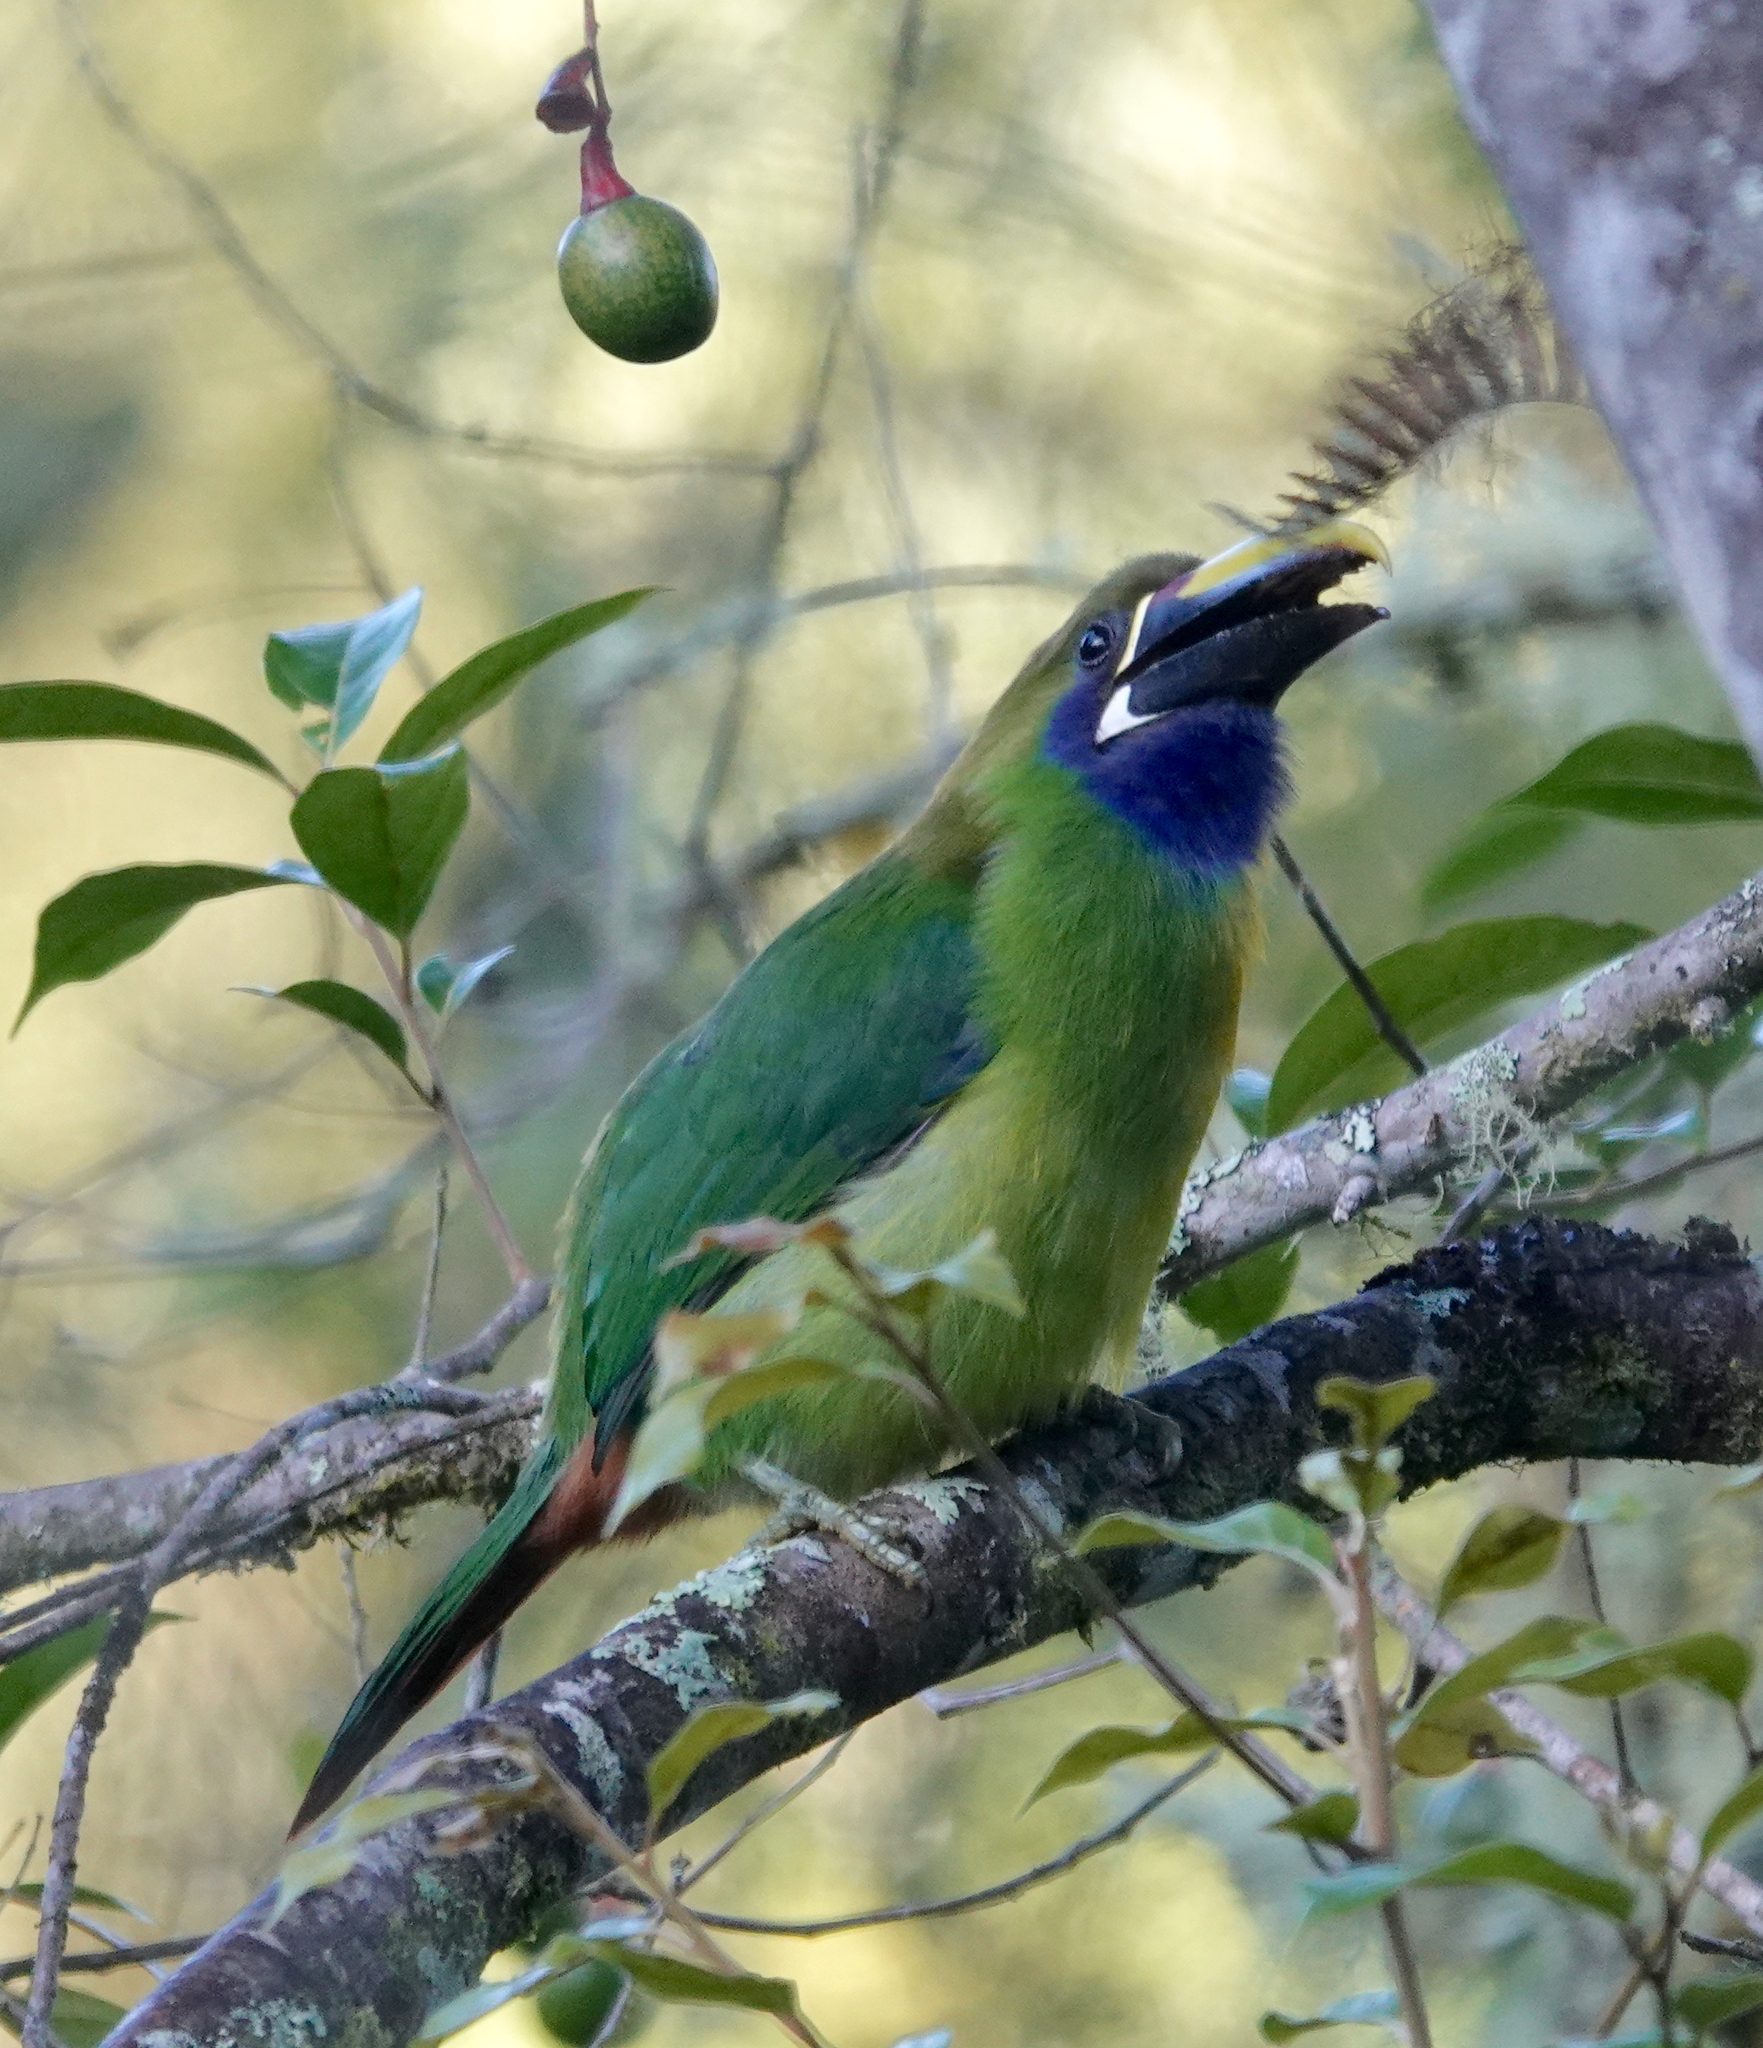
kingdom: Animalia
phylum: Chordata
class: Aves
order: Piciformes
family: Ramphastidae
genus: Aulacorhynchus
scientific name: Aulacorhynchus prasinus
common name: Emerald toucanet
